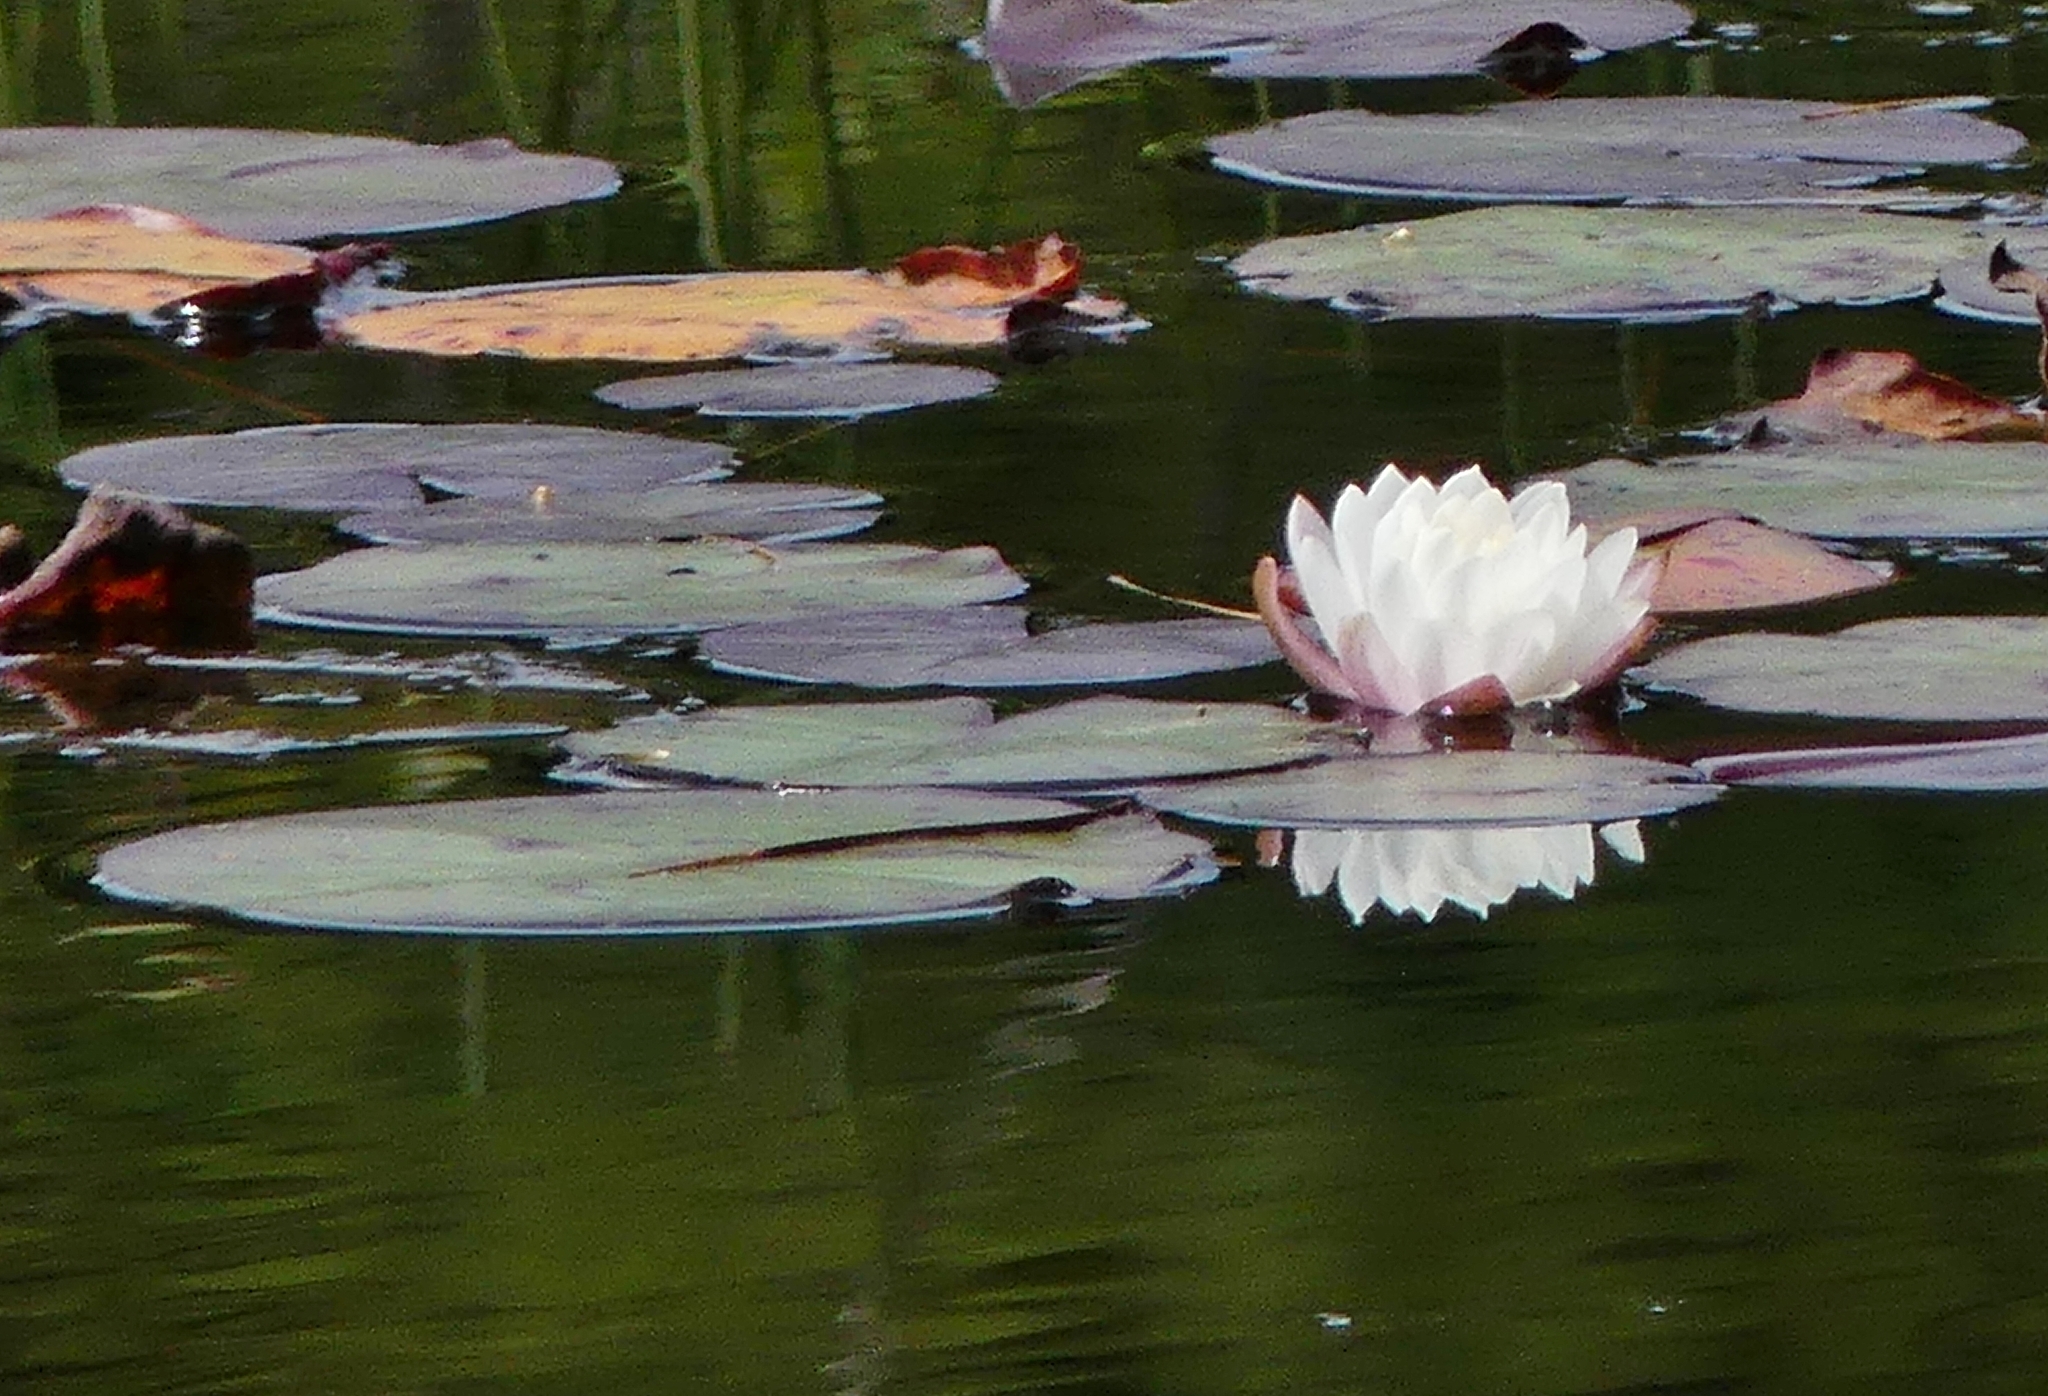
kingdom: Plantae
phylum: Tracheophyta
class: Magnoliopsida
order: Nymphaeales
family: Nymphaeaceae
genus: Nymphaea
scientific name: Nymphaea odorata
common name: Fragrant water-lily
